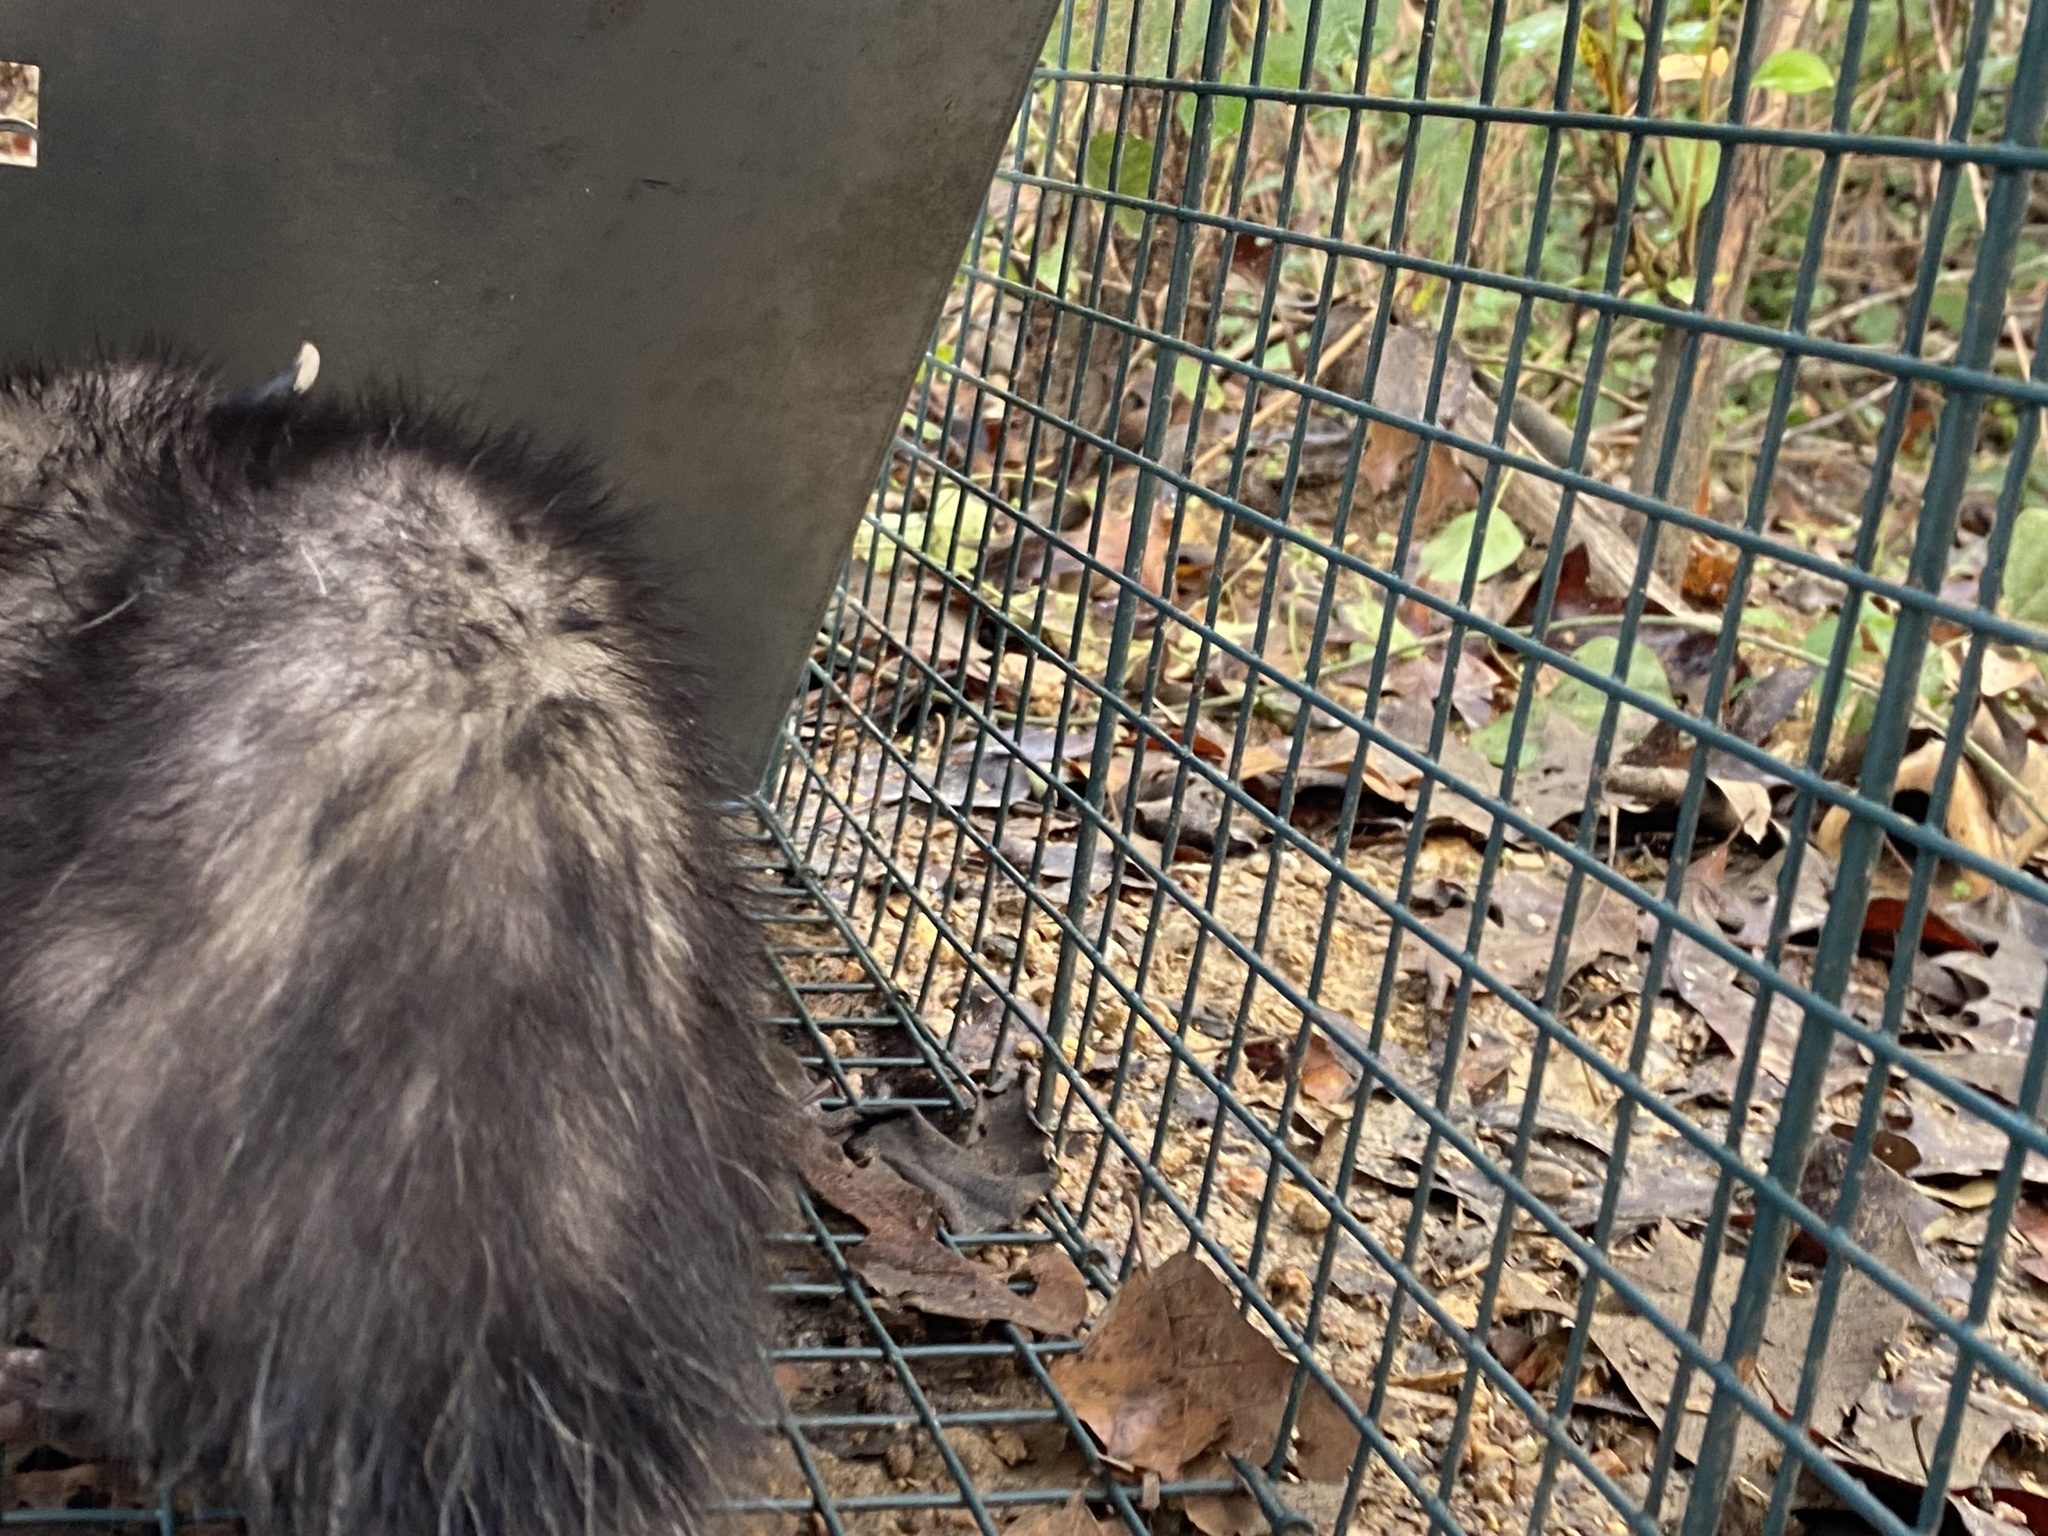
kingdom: Animalia
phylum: Chordata
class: Mammalia
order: Didelphimorphia
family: Didelphidae
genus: Didelphis
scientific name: Didelphis virginiana
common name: Virginia opossum
